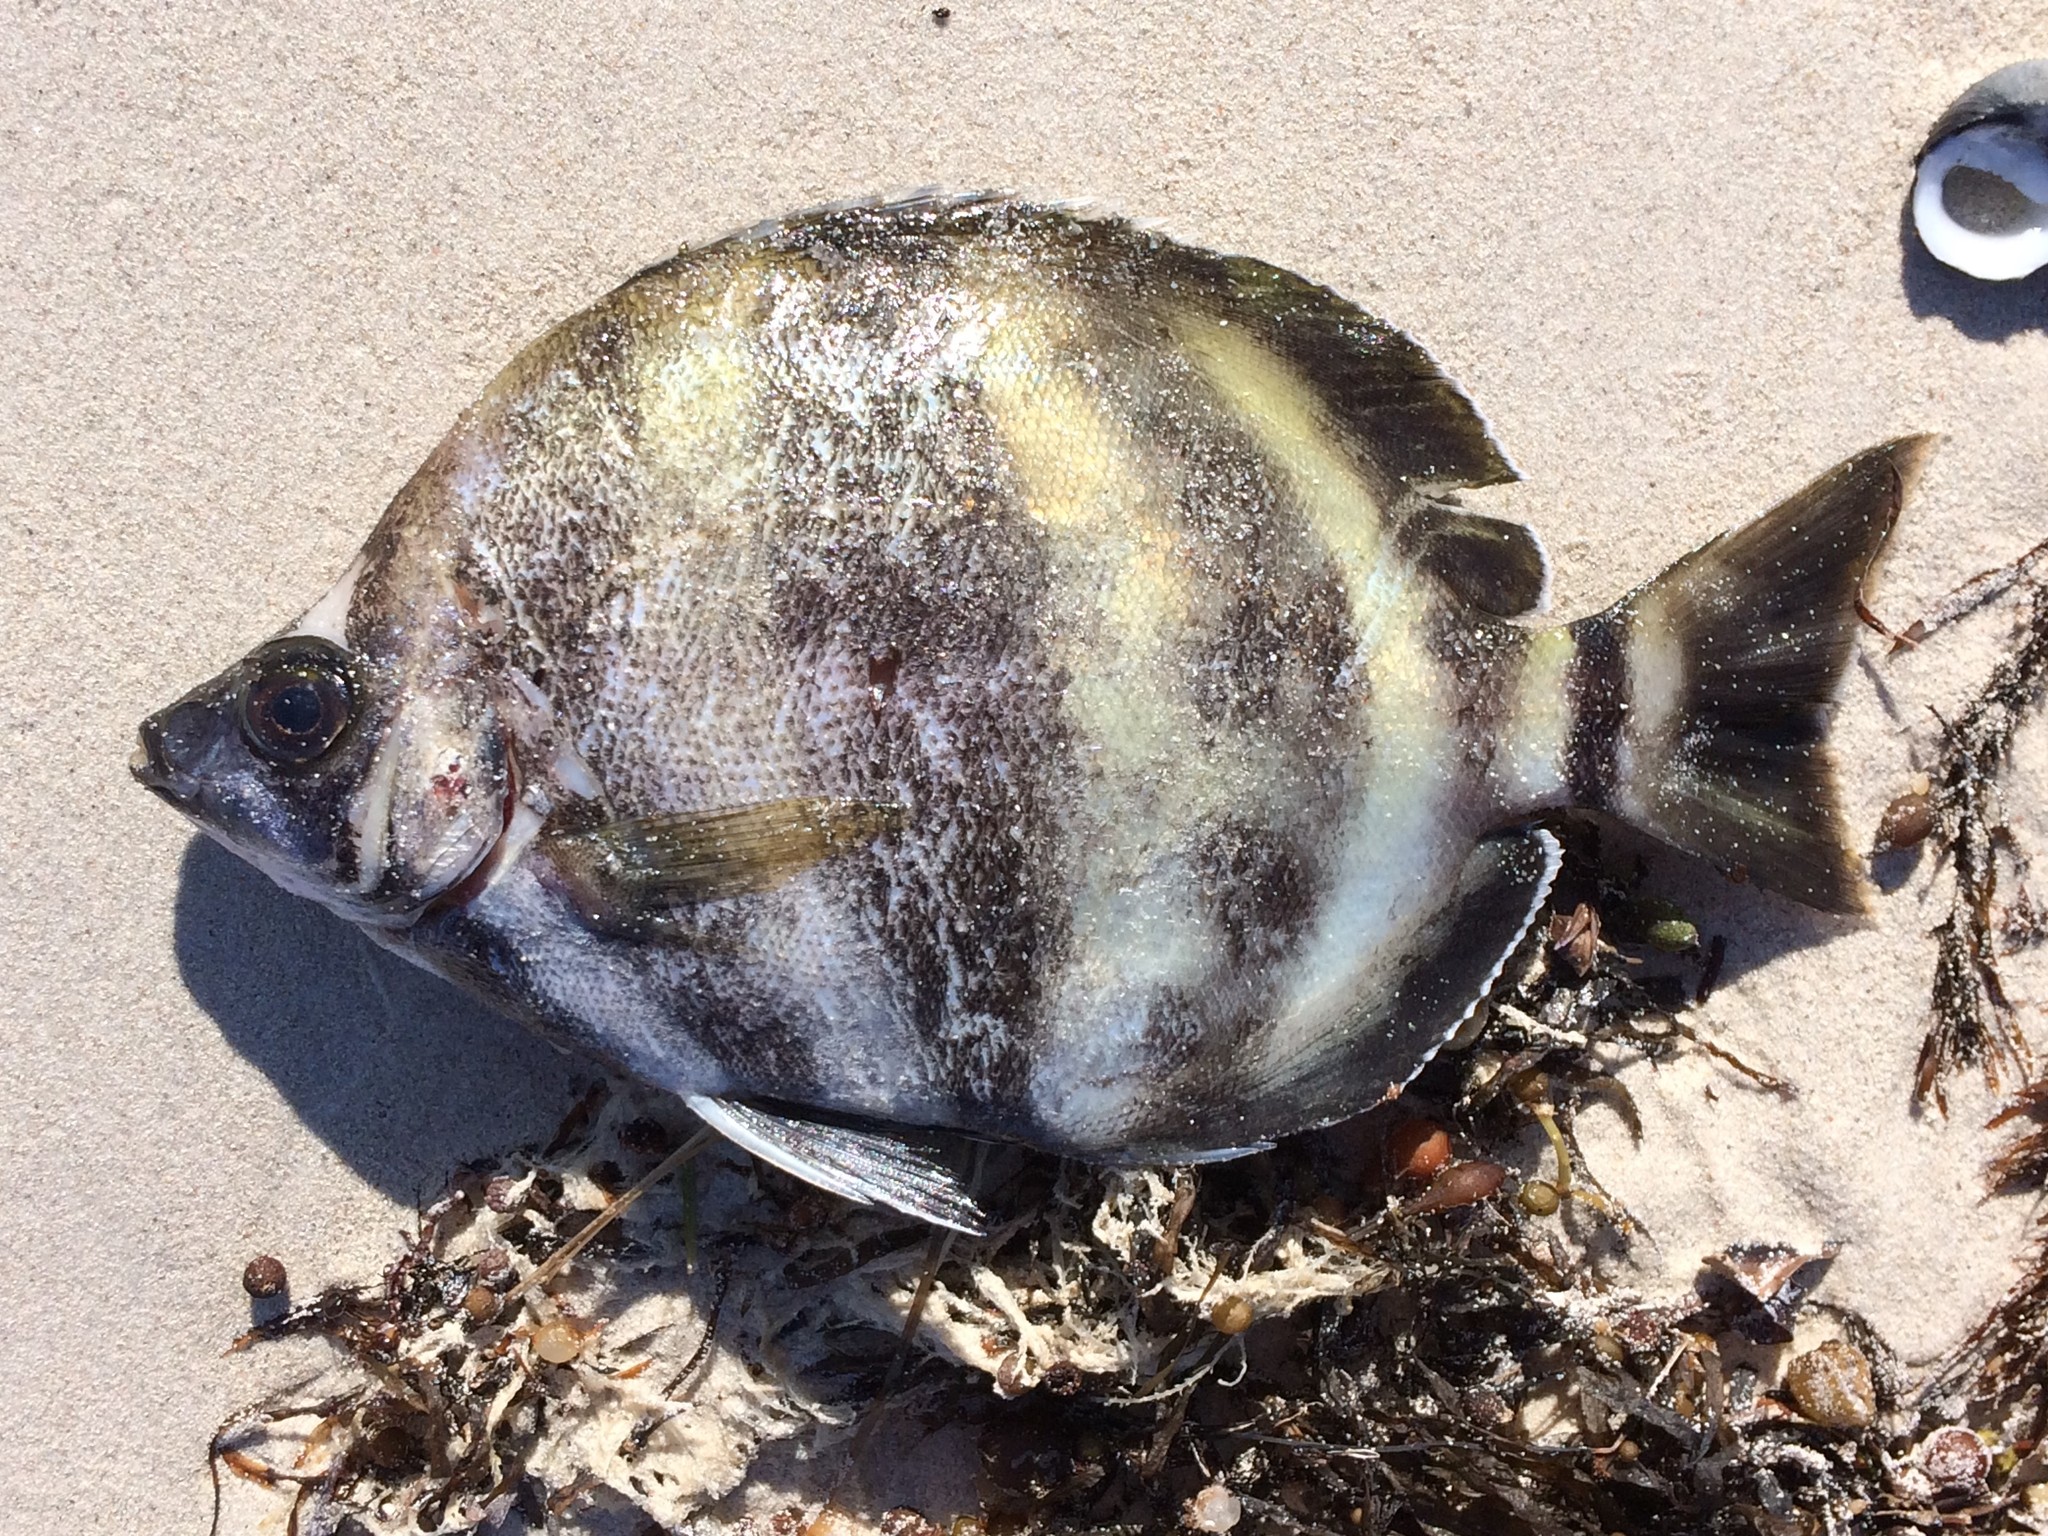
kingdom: Animalia
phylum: Chordata
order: Perciformes
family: Kyphosidae
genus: Tilodon
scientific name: Tilodon sexfasciatus
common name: Moonlighter
